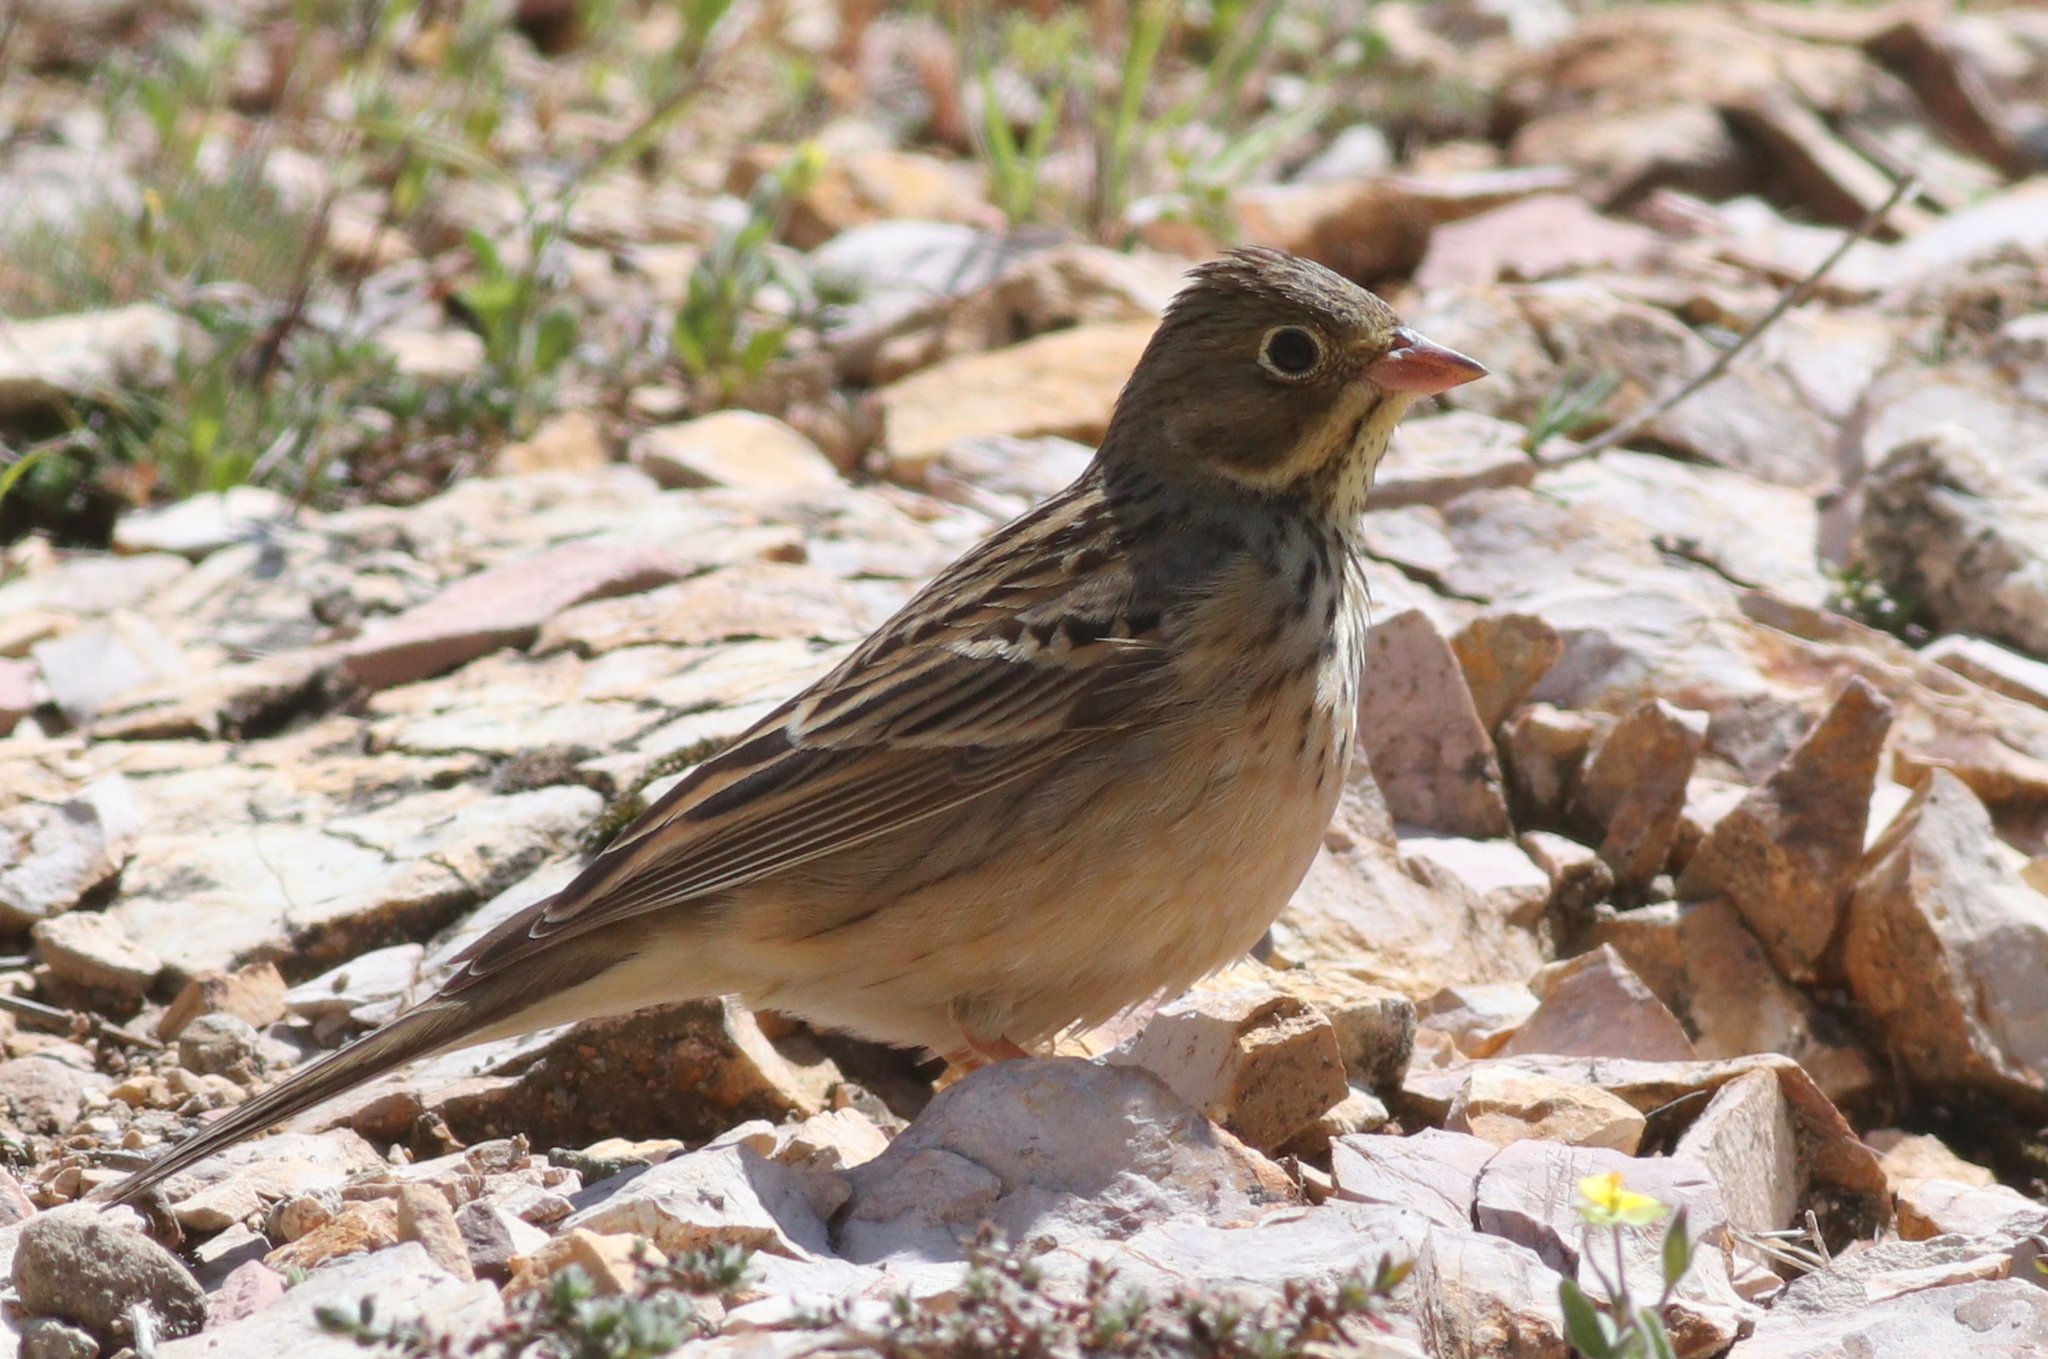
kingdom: Animalia
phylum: Chordata
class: Aves
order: Passeriformes
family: Emberizidae
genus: Emberiza
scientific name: Emberiza hortulana
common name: Ortolan bunting
